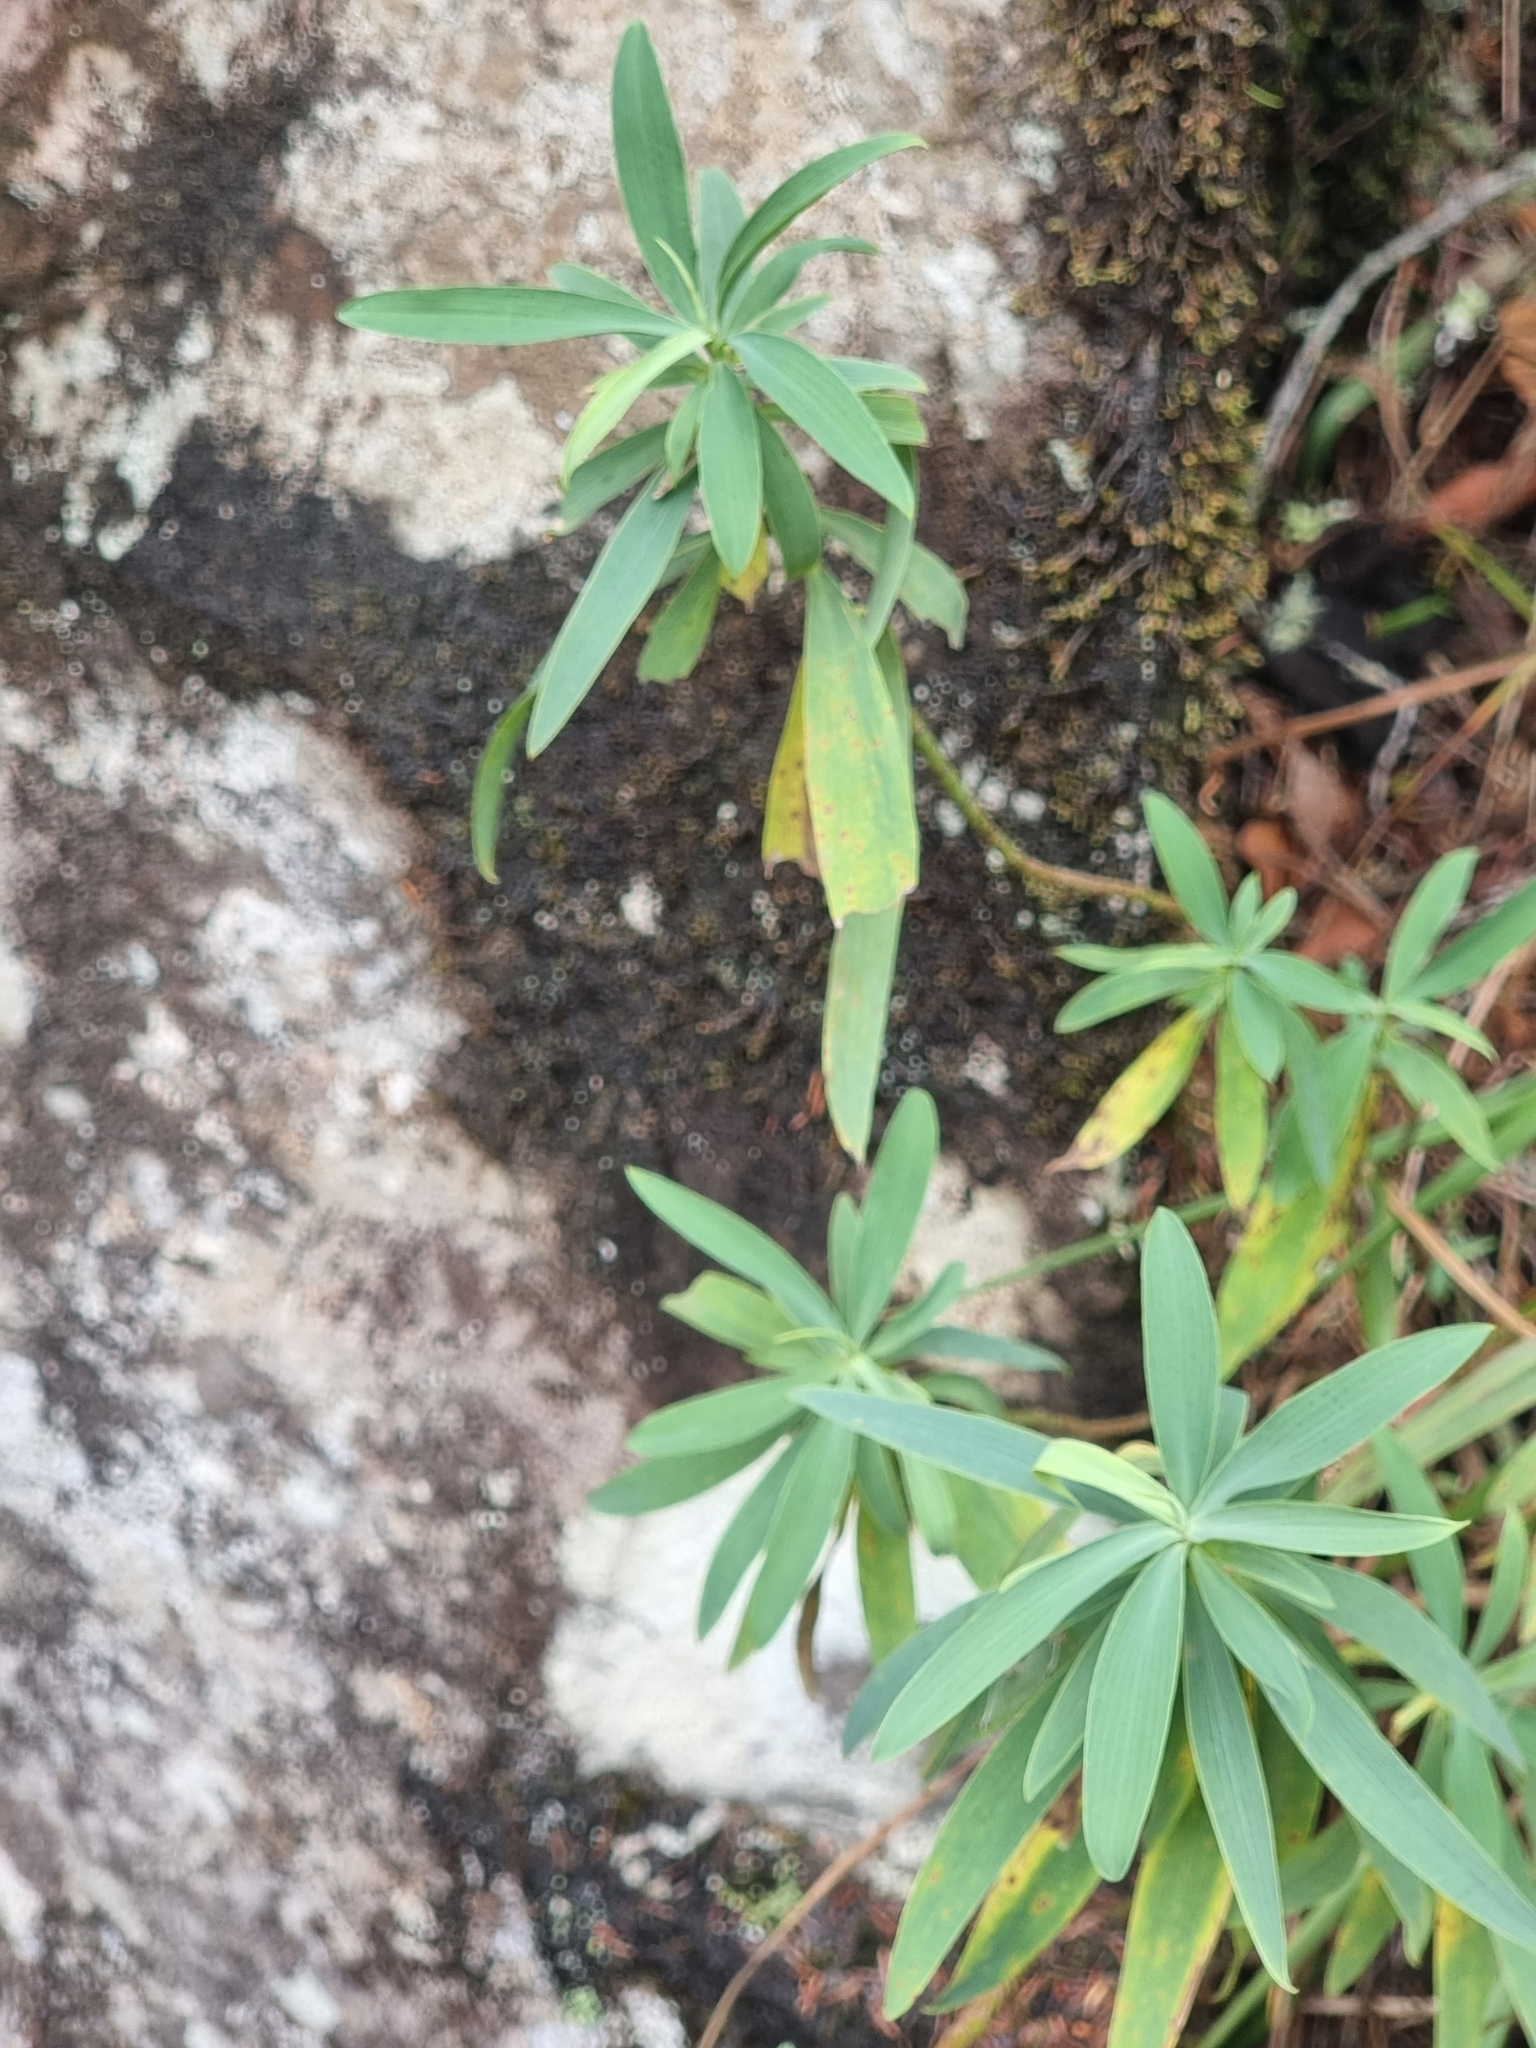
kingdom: Plantae
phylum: Tracheophyta
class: Magnoliopsida
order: Apiales
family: Apiaceae
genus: Bupleurum
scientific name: Bupleurum salicifolium
